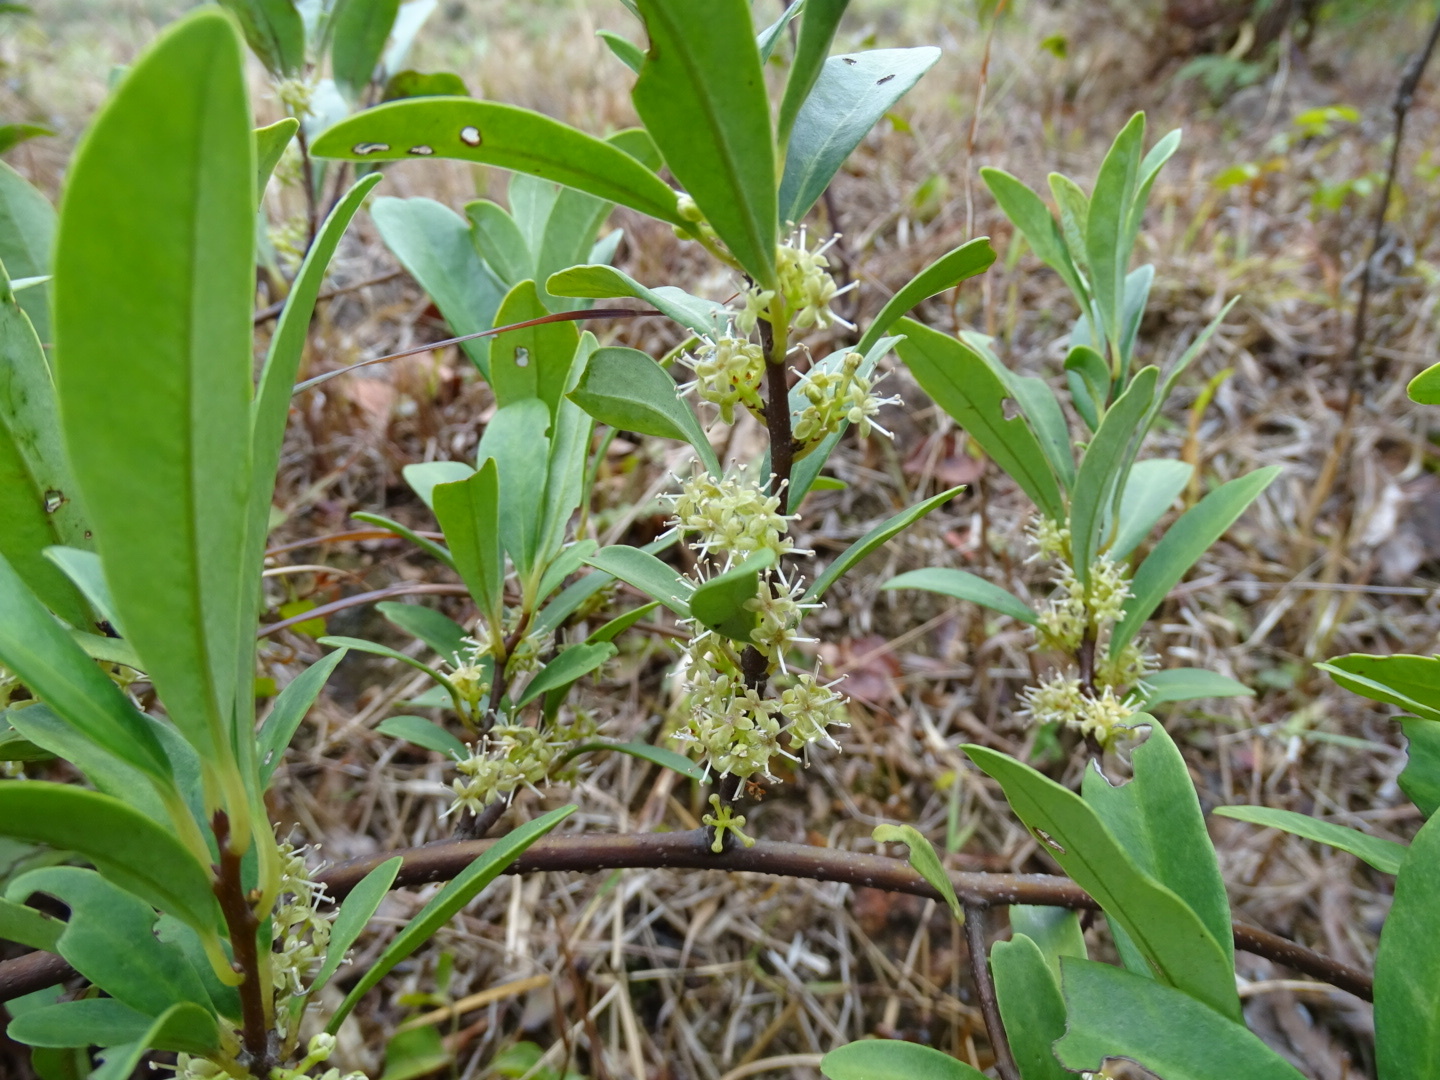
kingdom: Plantae
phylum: Tracheophyta
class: Magnoliopsida
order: Ericales
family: Primulaceae
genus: Embelia
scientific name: Embelia laeta
